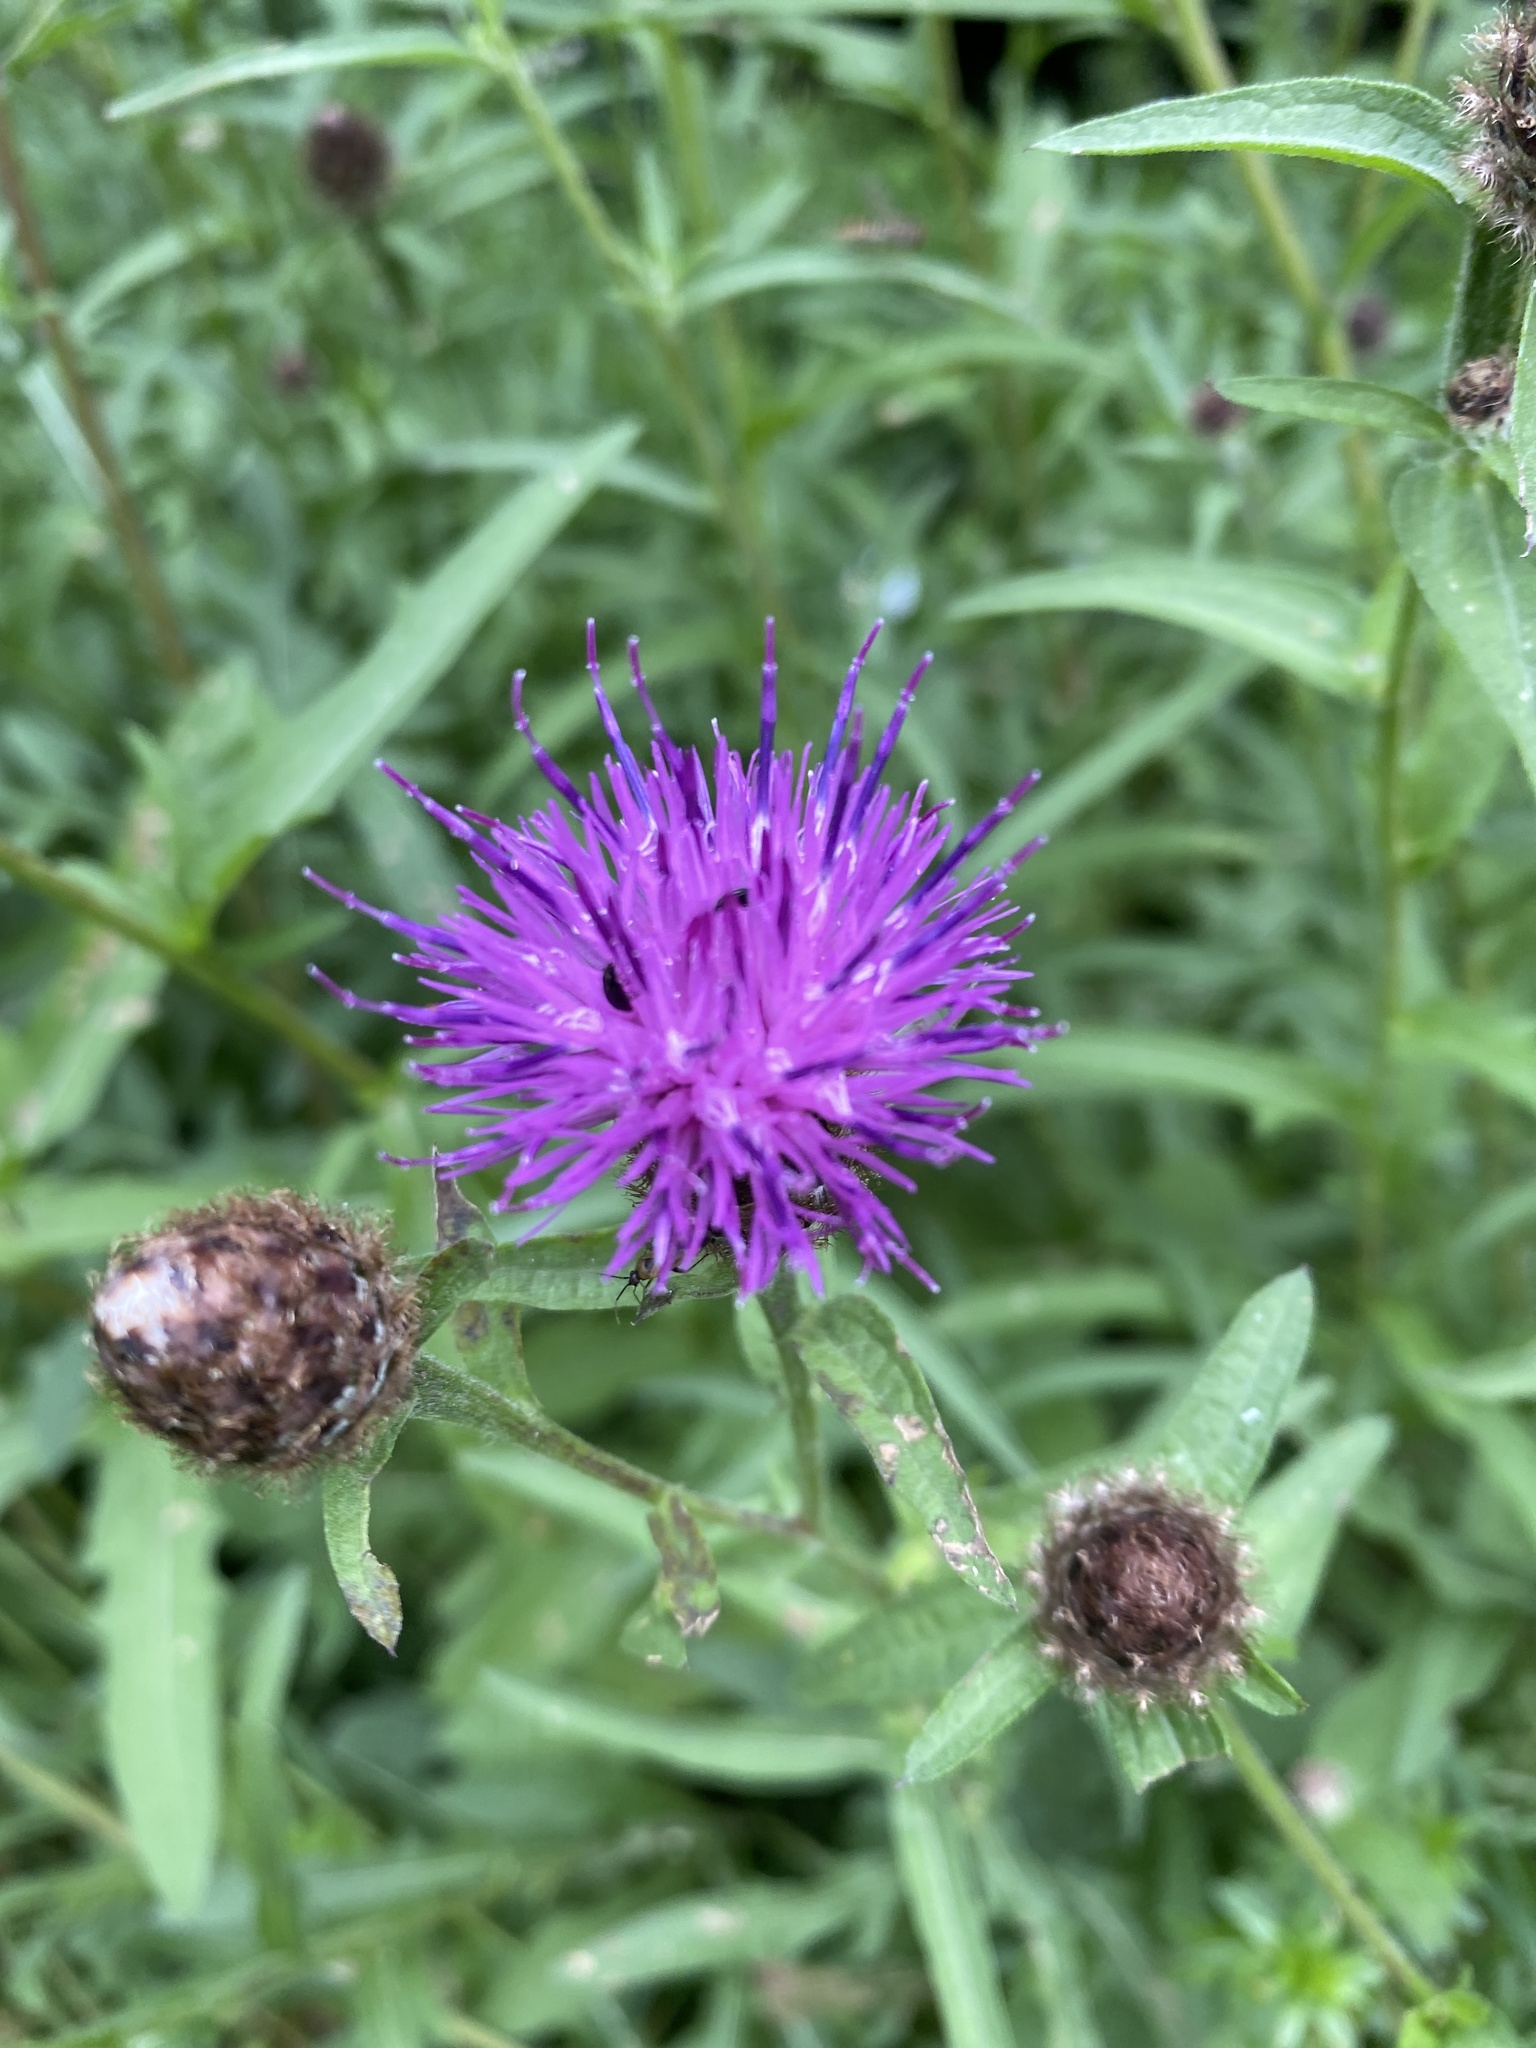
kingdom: Plantae
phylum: Tracheophyta
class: Magnoliopsida
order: Asterales
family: Asteraceae
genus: Centaurea
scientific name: Centaurea nigra
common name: Lesser knapweed
